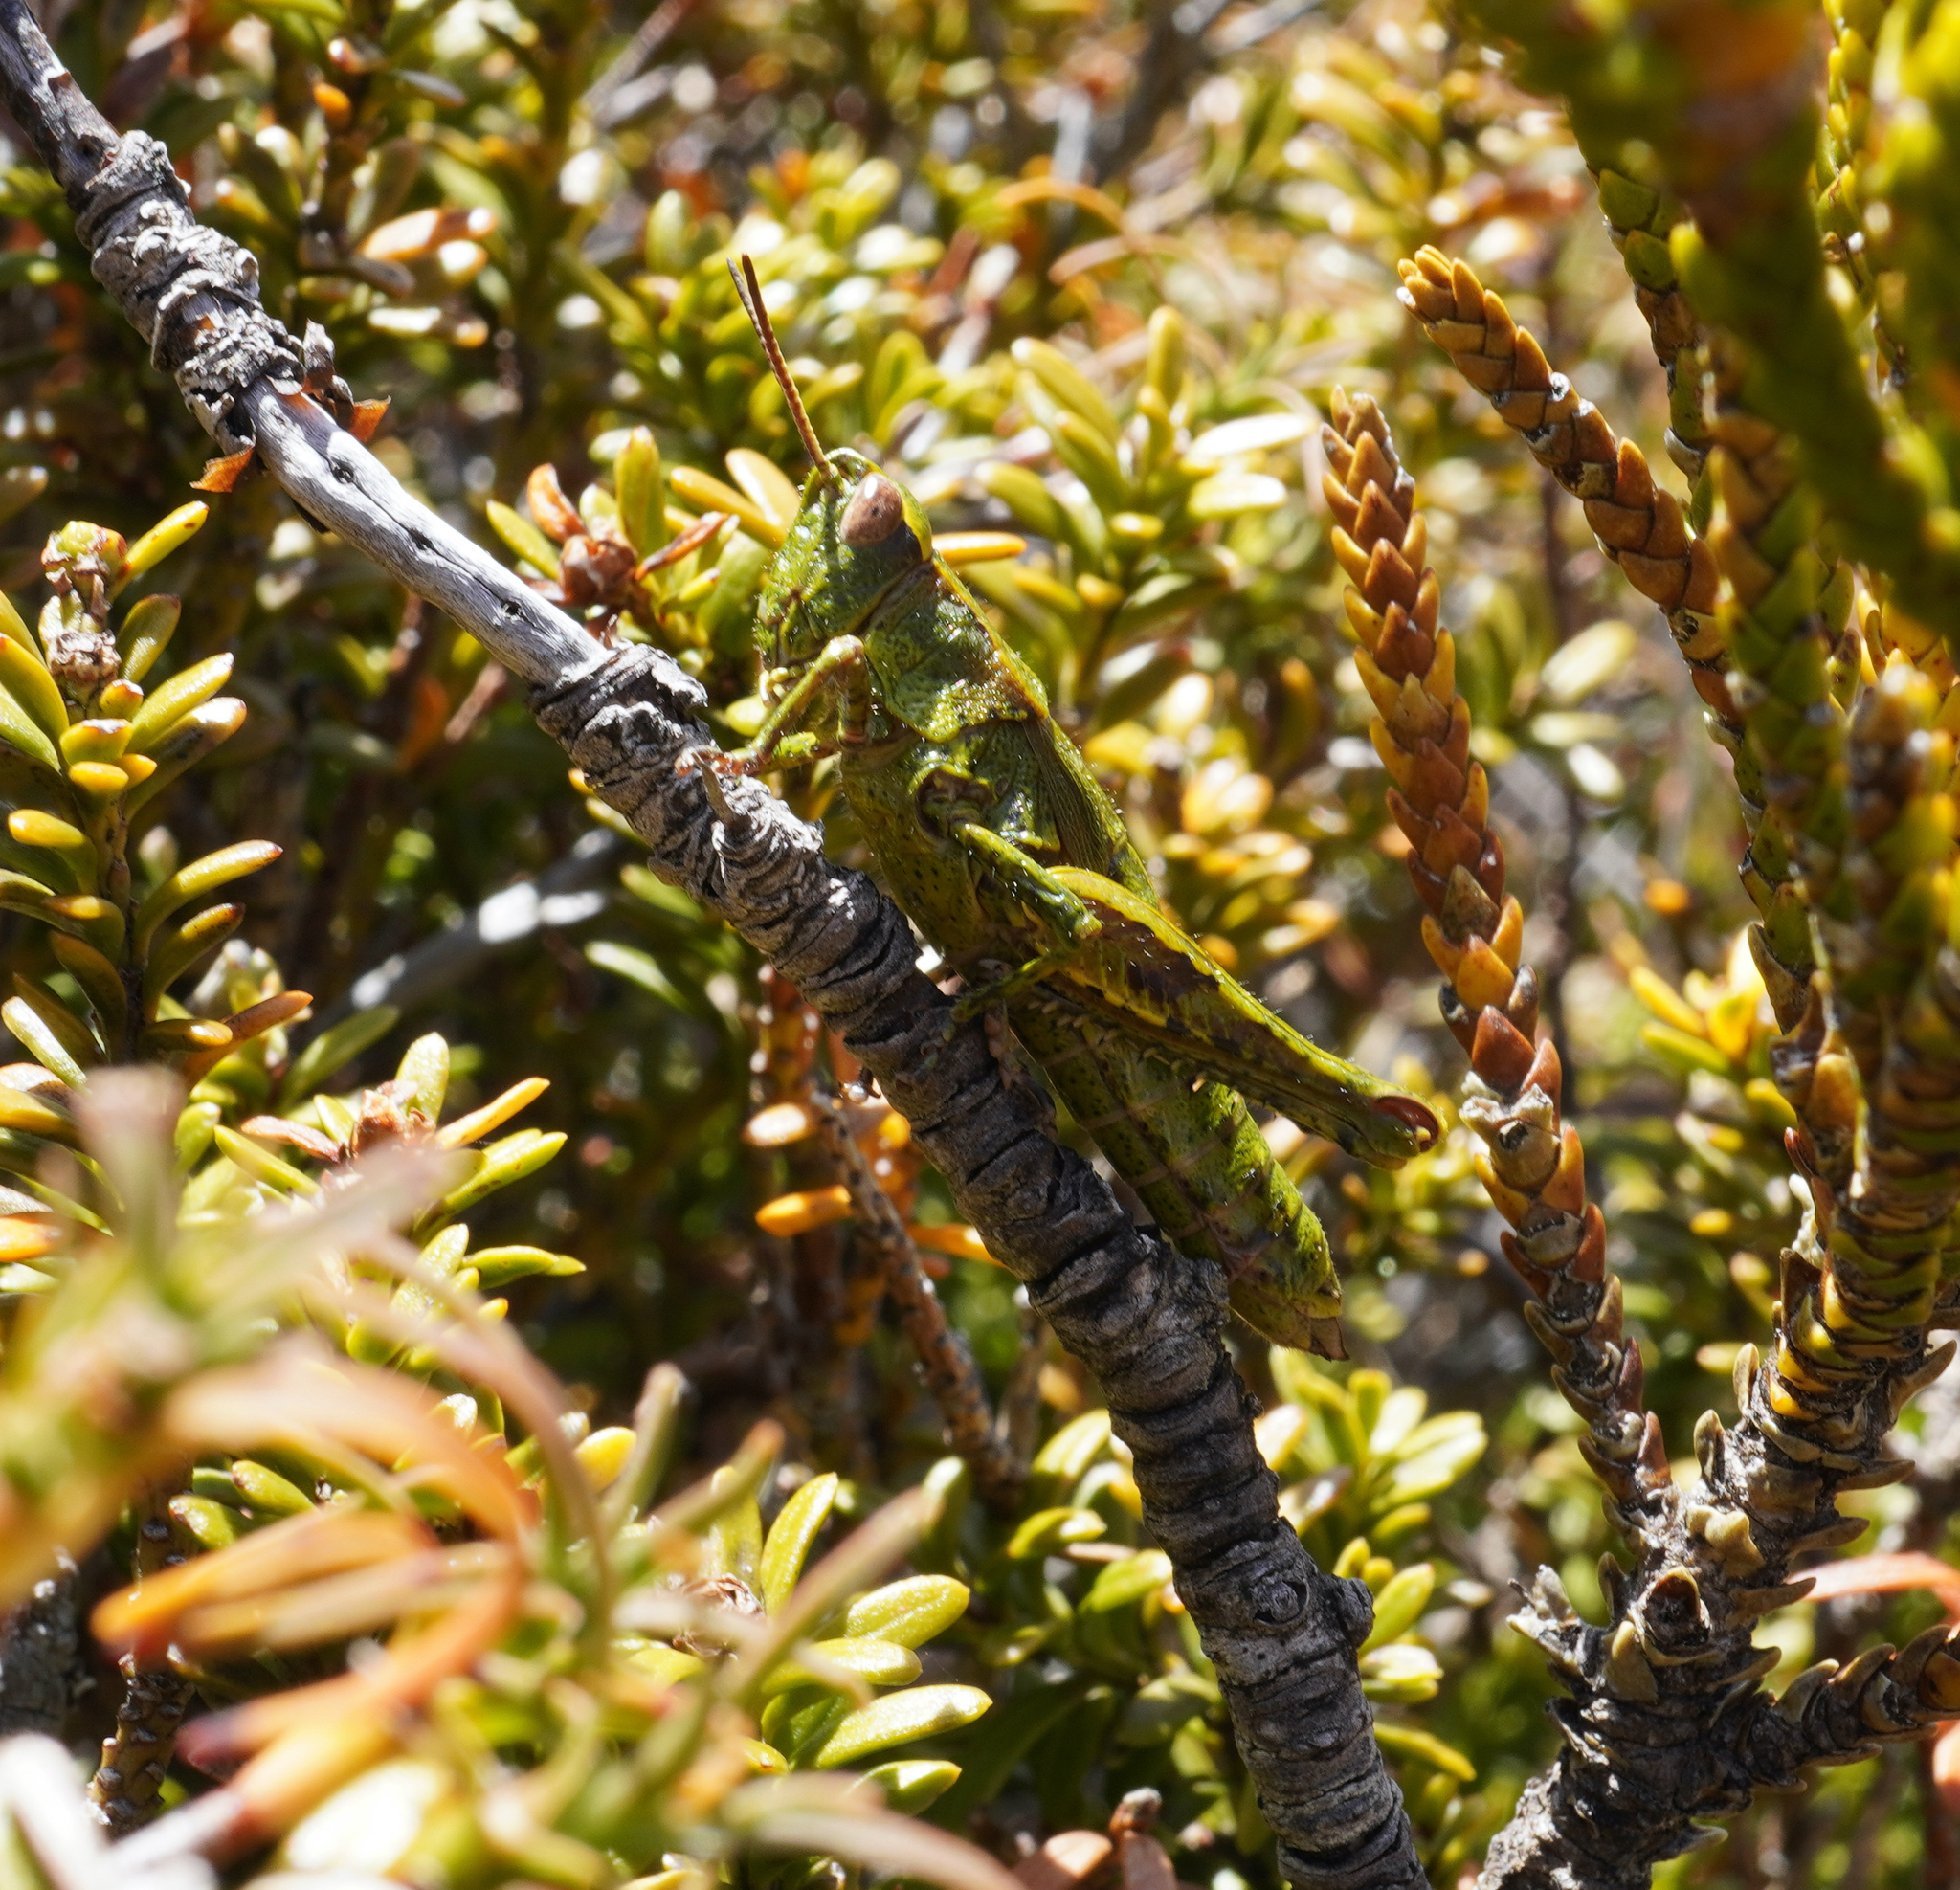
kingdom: Animalia
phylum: Arthropoda
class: Insecta
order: Orthoptera
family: Acrididae
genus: Sigaus
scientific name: Sigaus piliferus
